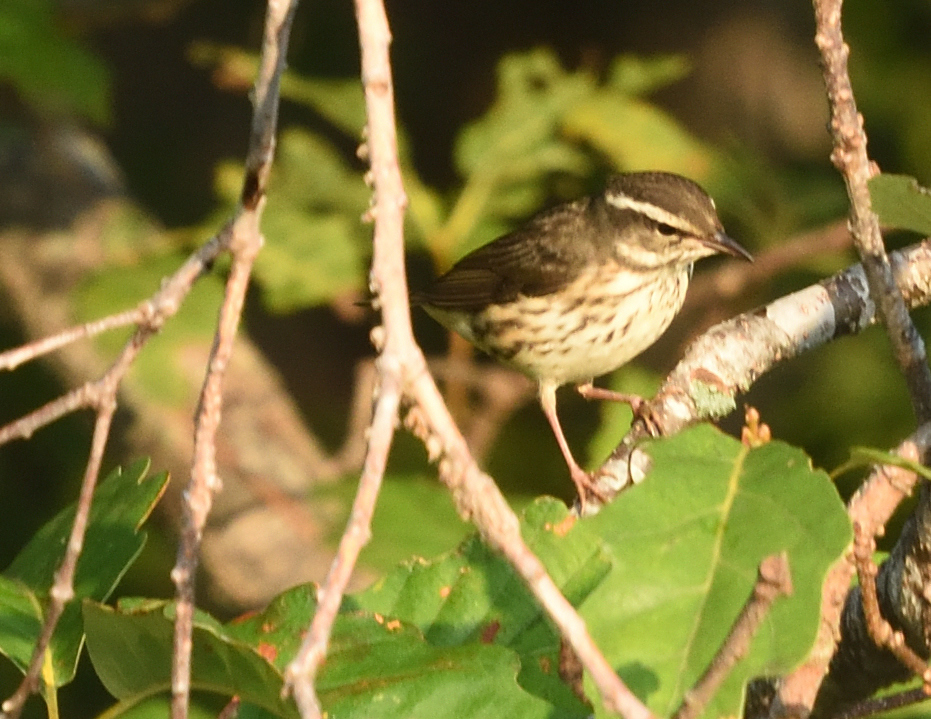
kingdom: Animalia
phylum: Chordata
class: Aves
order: Passeriformes
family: Parulidae
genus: Parkesia
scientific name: Parkesia motacilla
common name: Louisiana waterthrush
